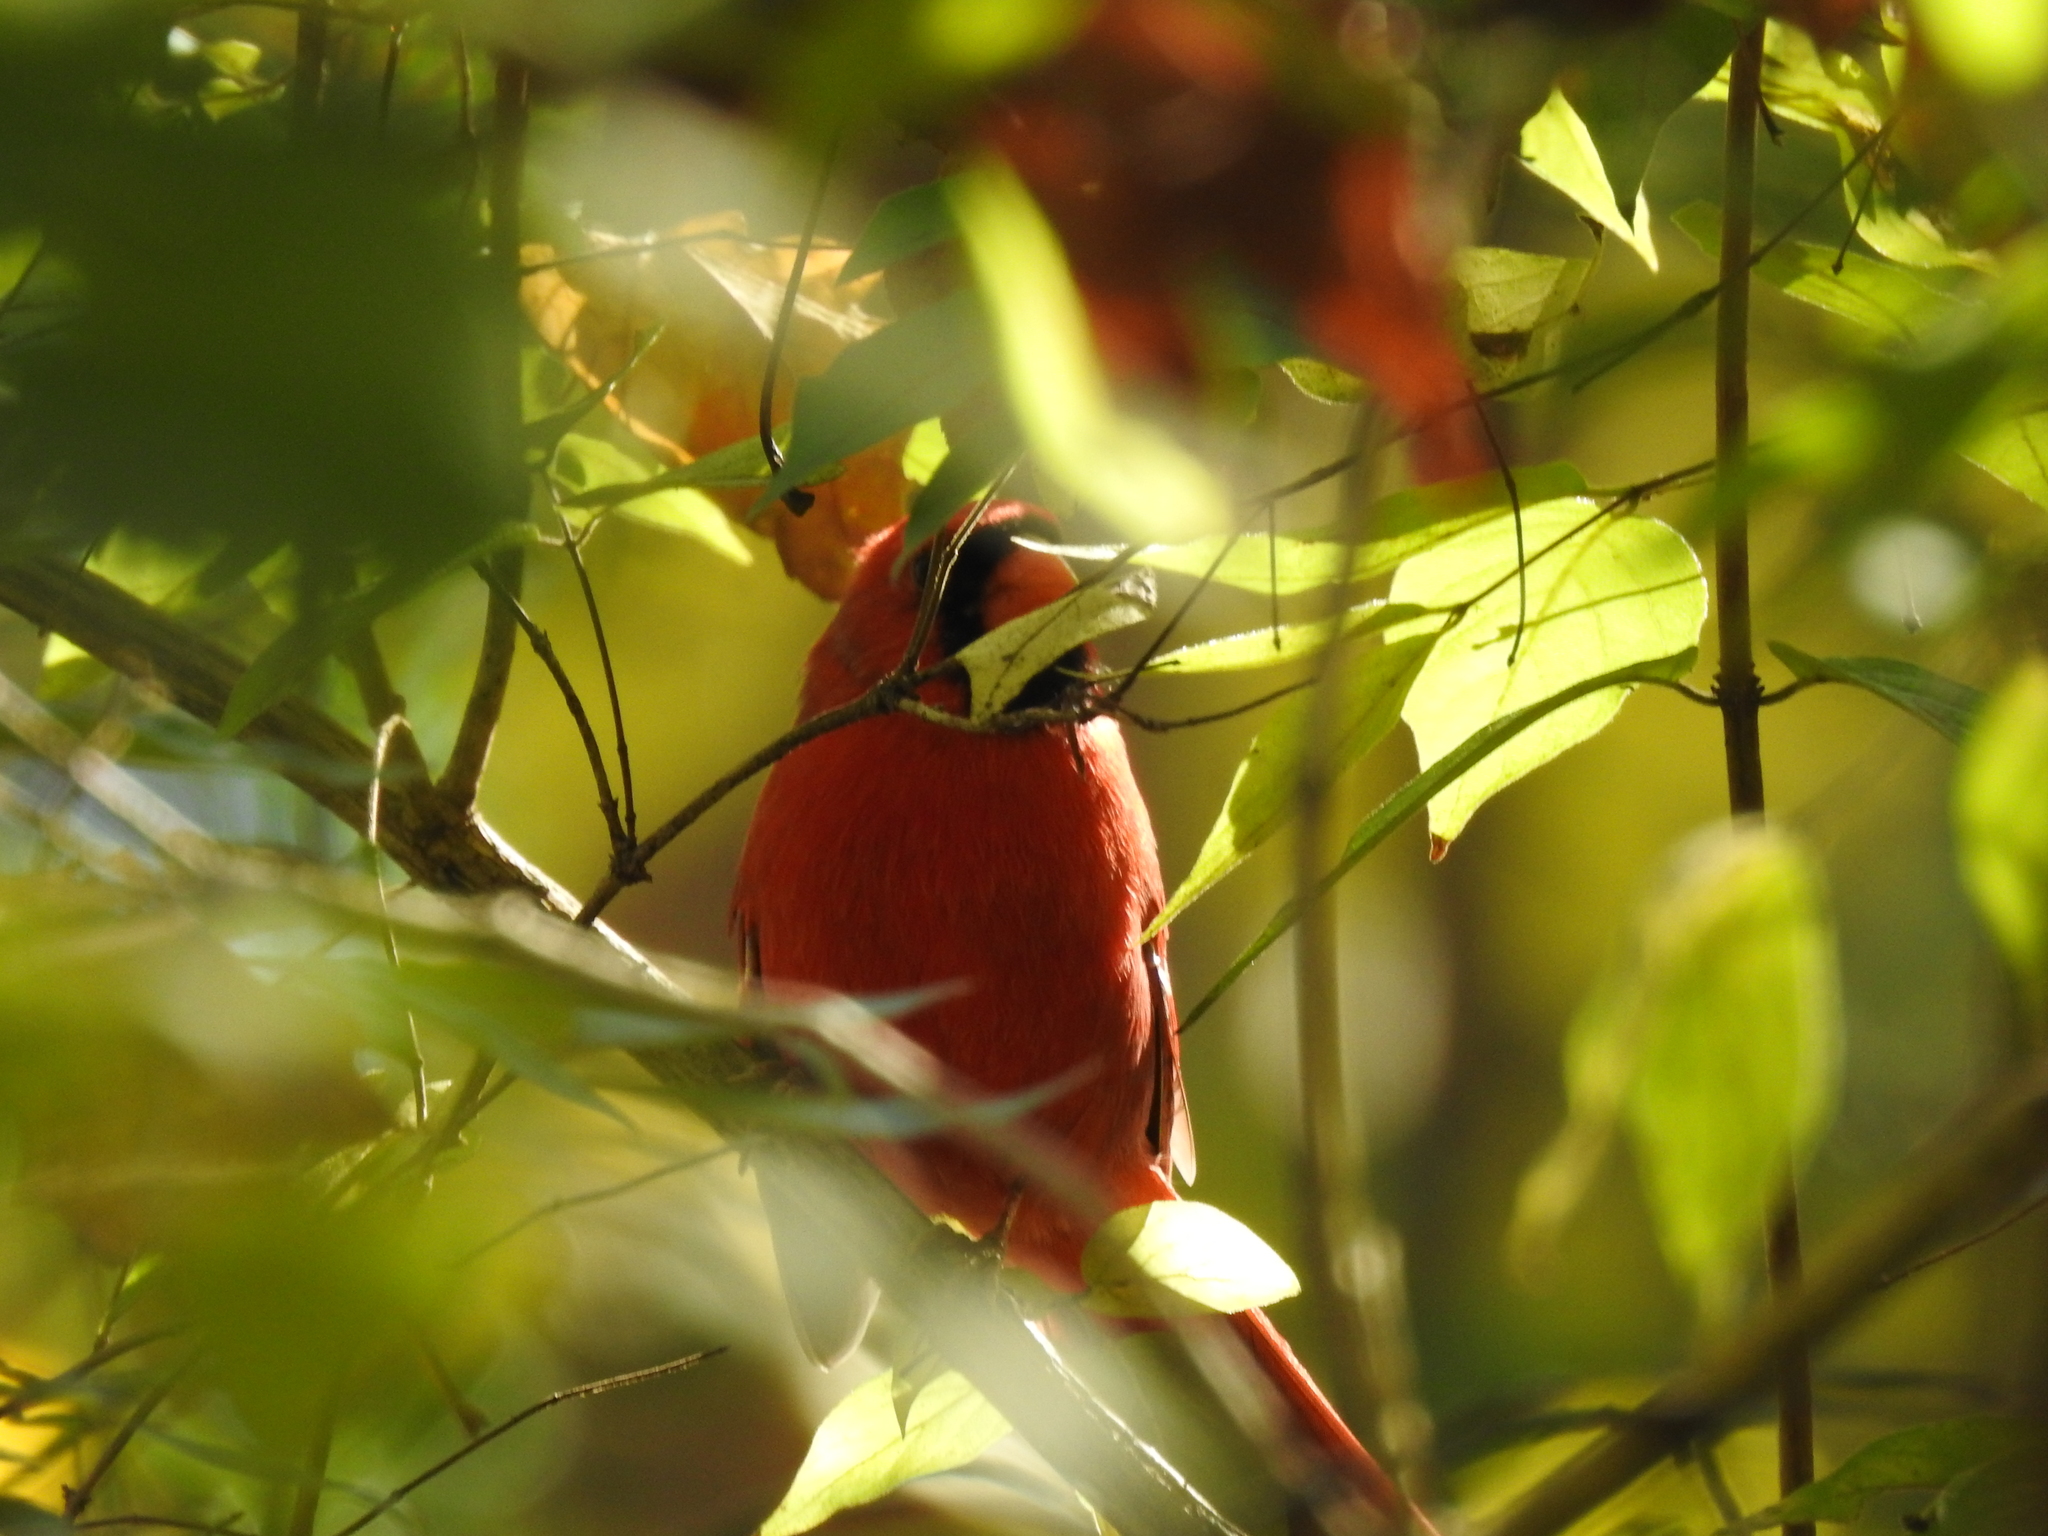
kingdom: Animalia
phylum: Chordata
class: Aves
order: Passeriformes
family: Cardinalidae
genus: Cardinalis
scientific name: Cardinalis cardinalis
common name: Northern cardinal
